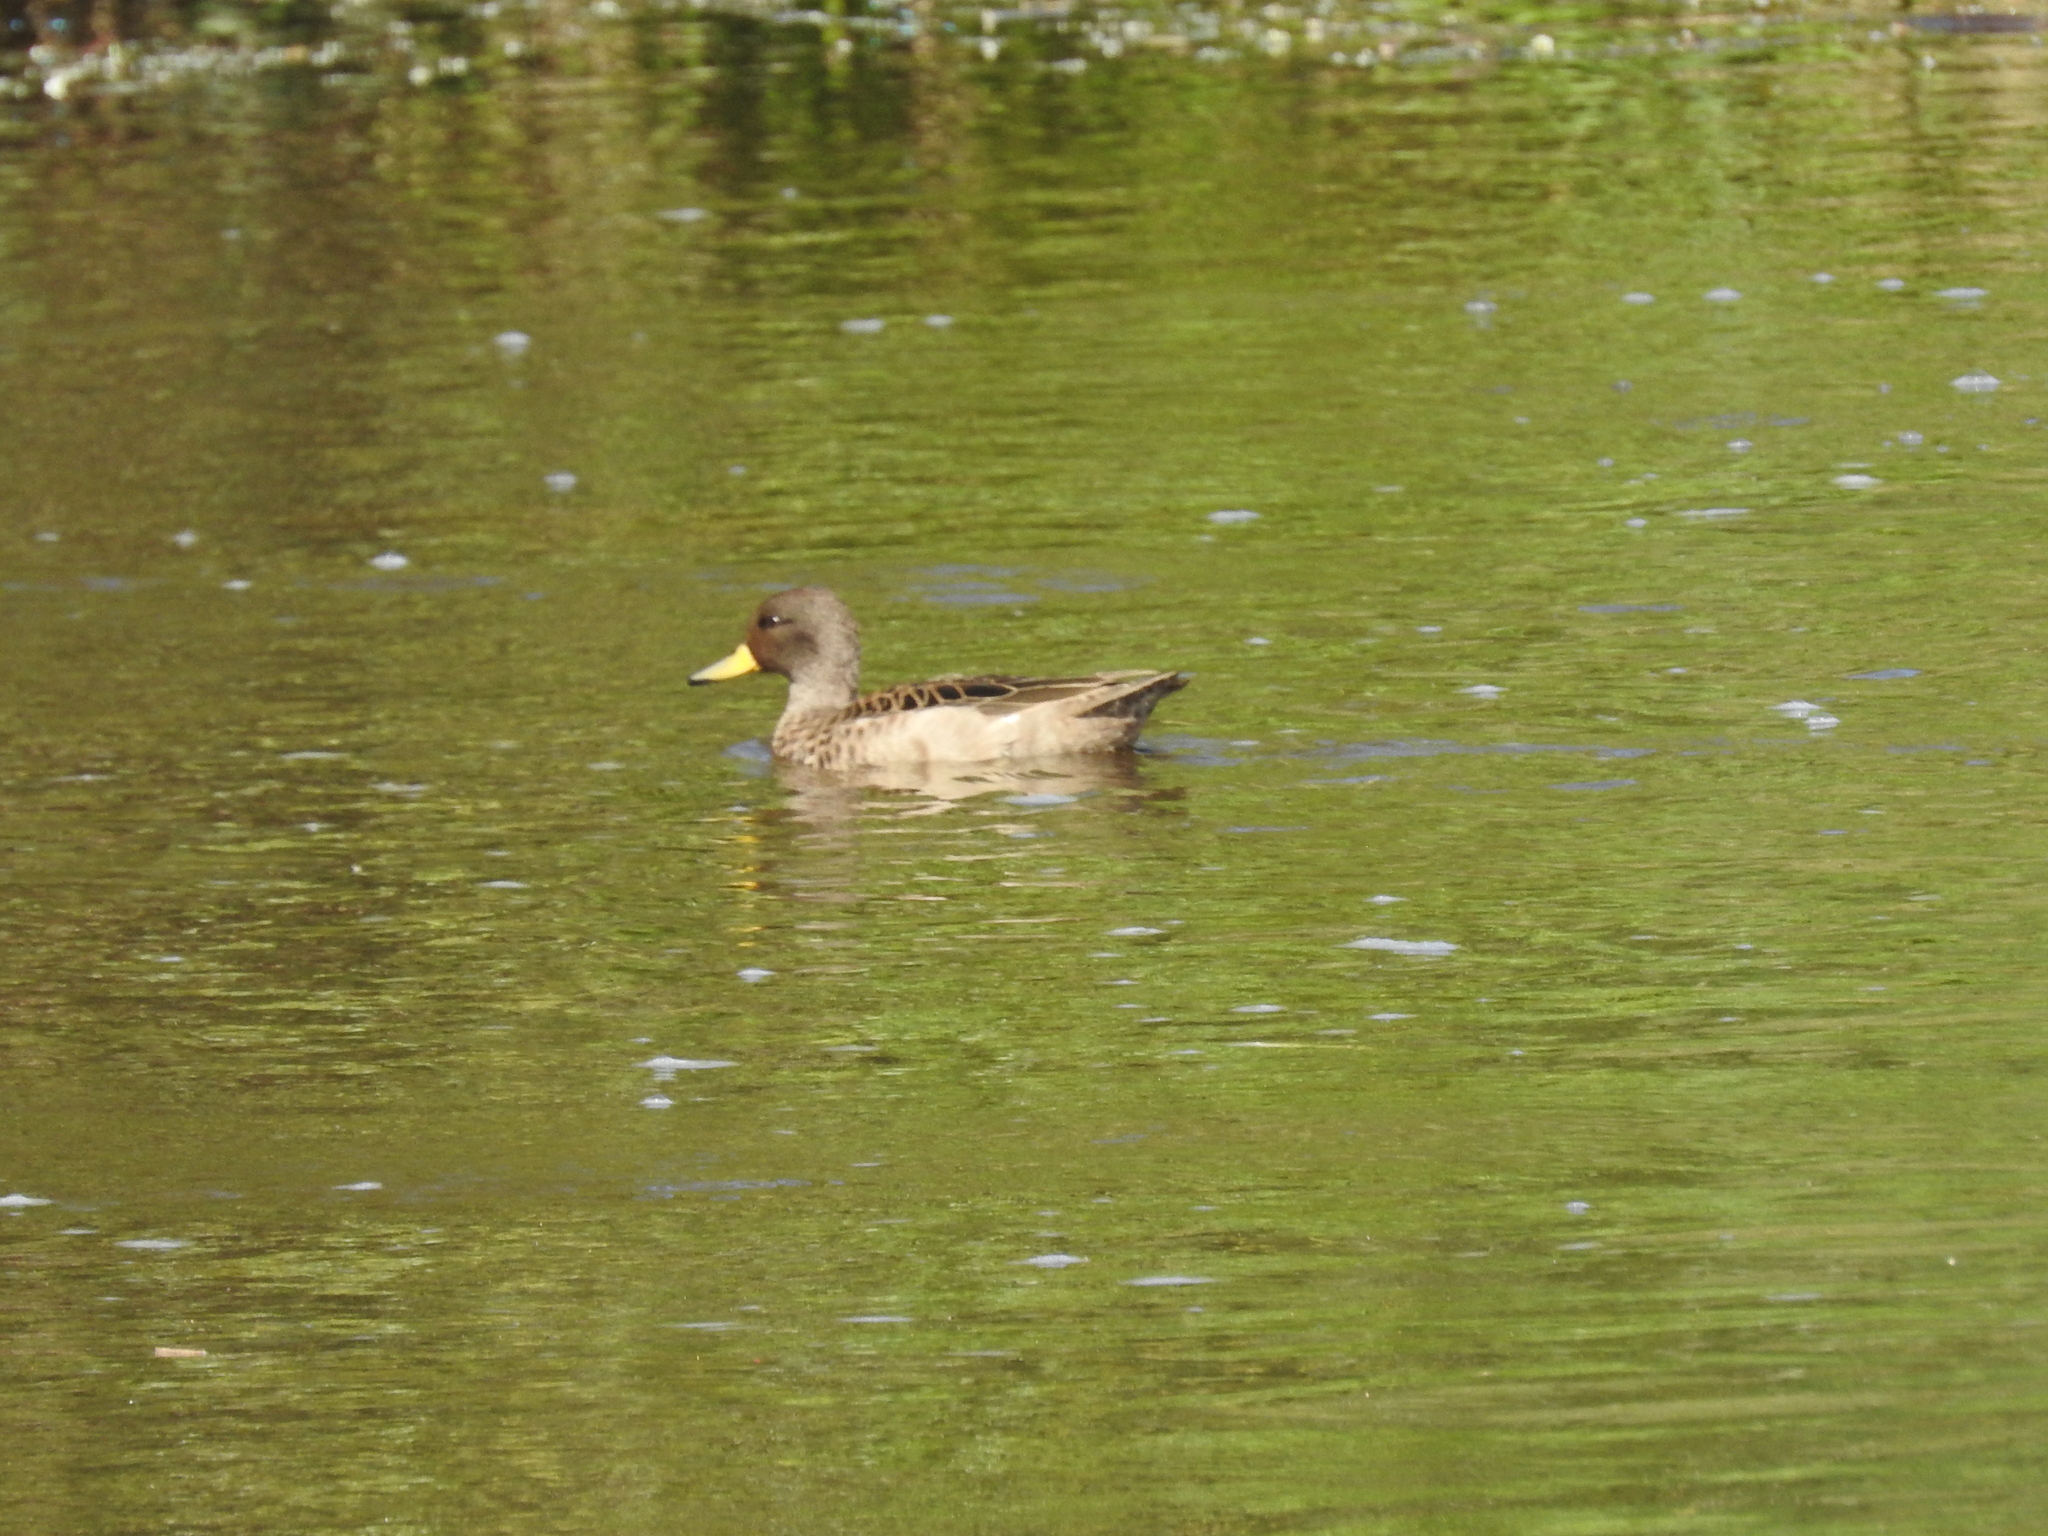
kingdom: Animalia
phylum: Chordata
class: Aves
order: Anseriformes
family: Anatidae
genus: Anas
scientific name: Anas flavirostris
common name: Yellow-billed teal
